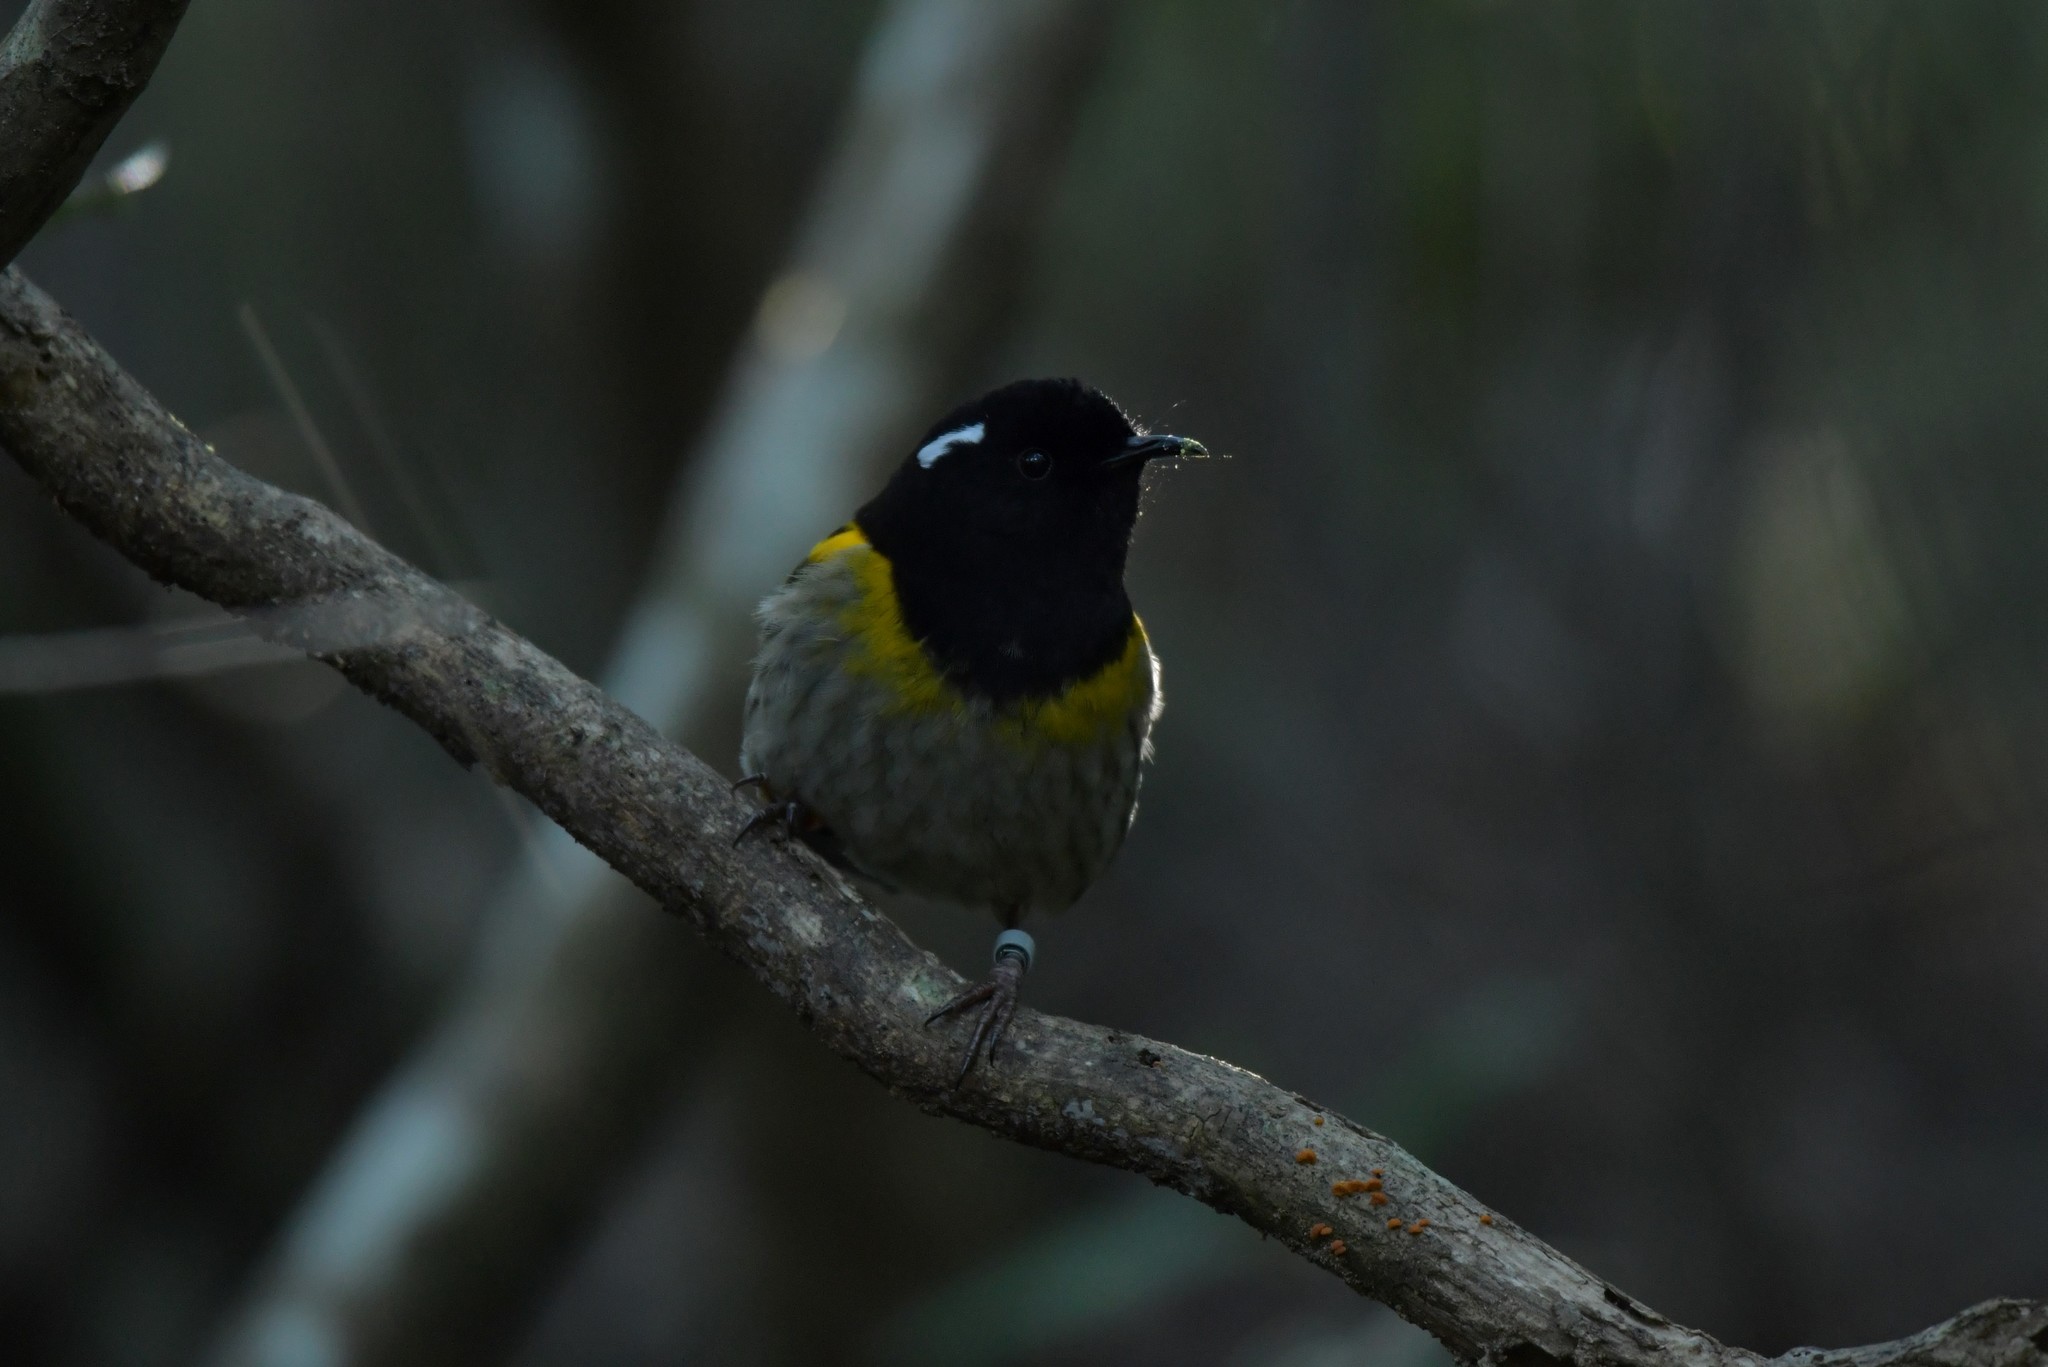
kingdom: Animalia
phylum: Chordata
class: Aves
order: Passeriformes
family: Notiomystidae
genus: Notiomystis
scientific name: Notiomystis cincta
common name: Stitchbird
